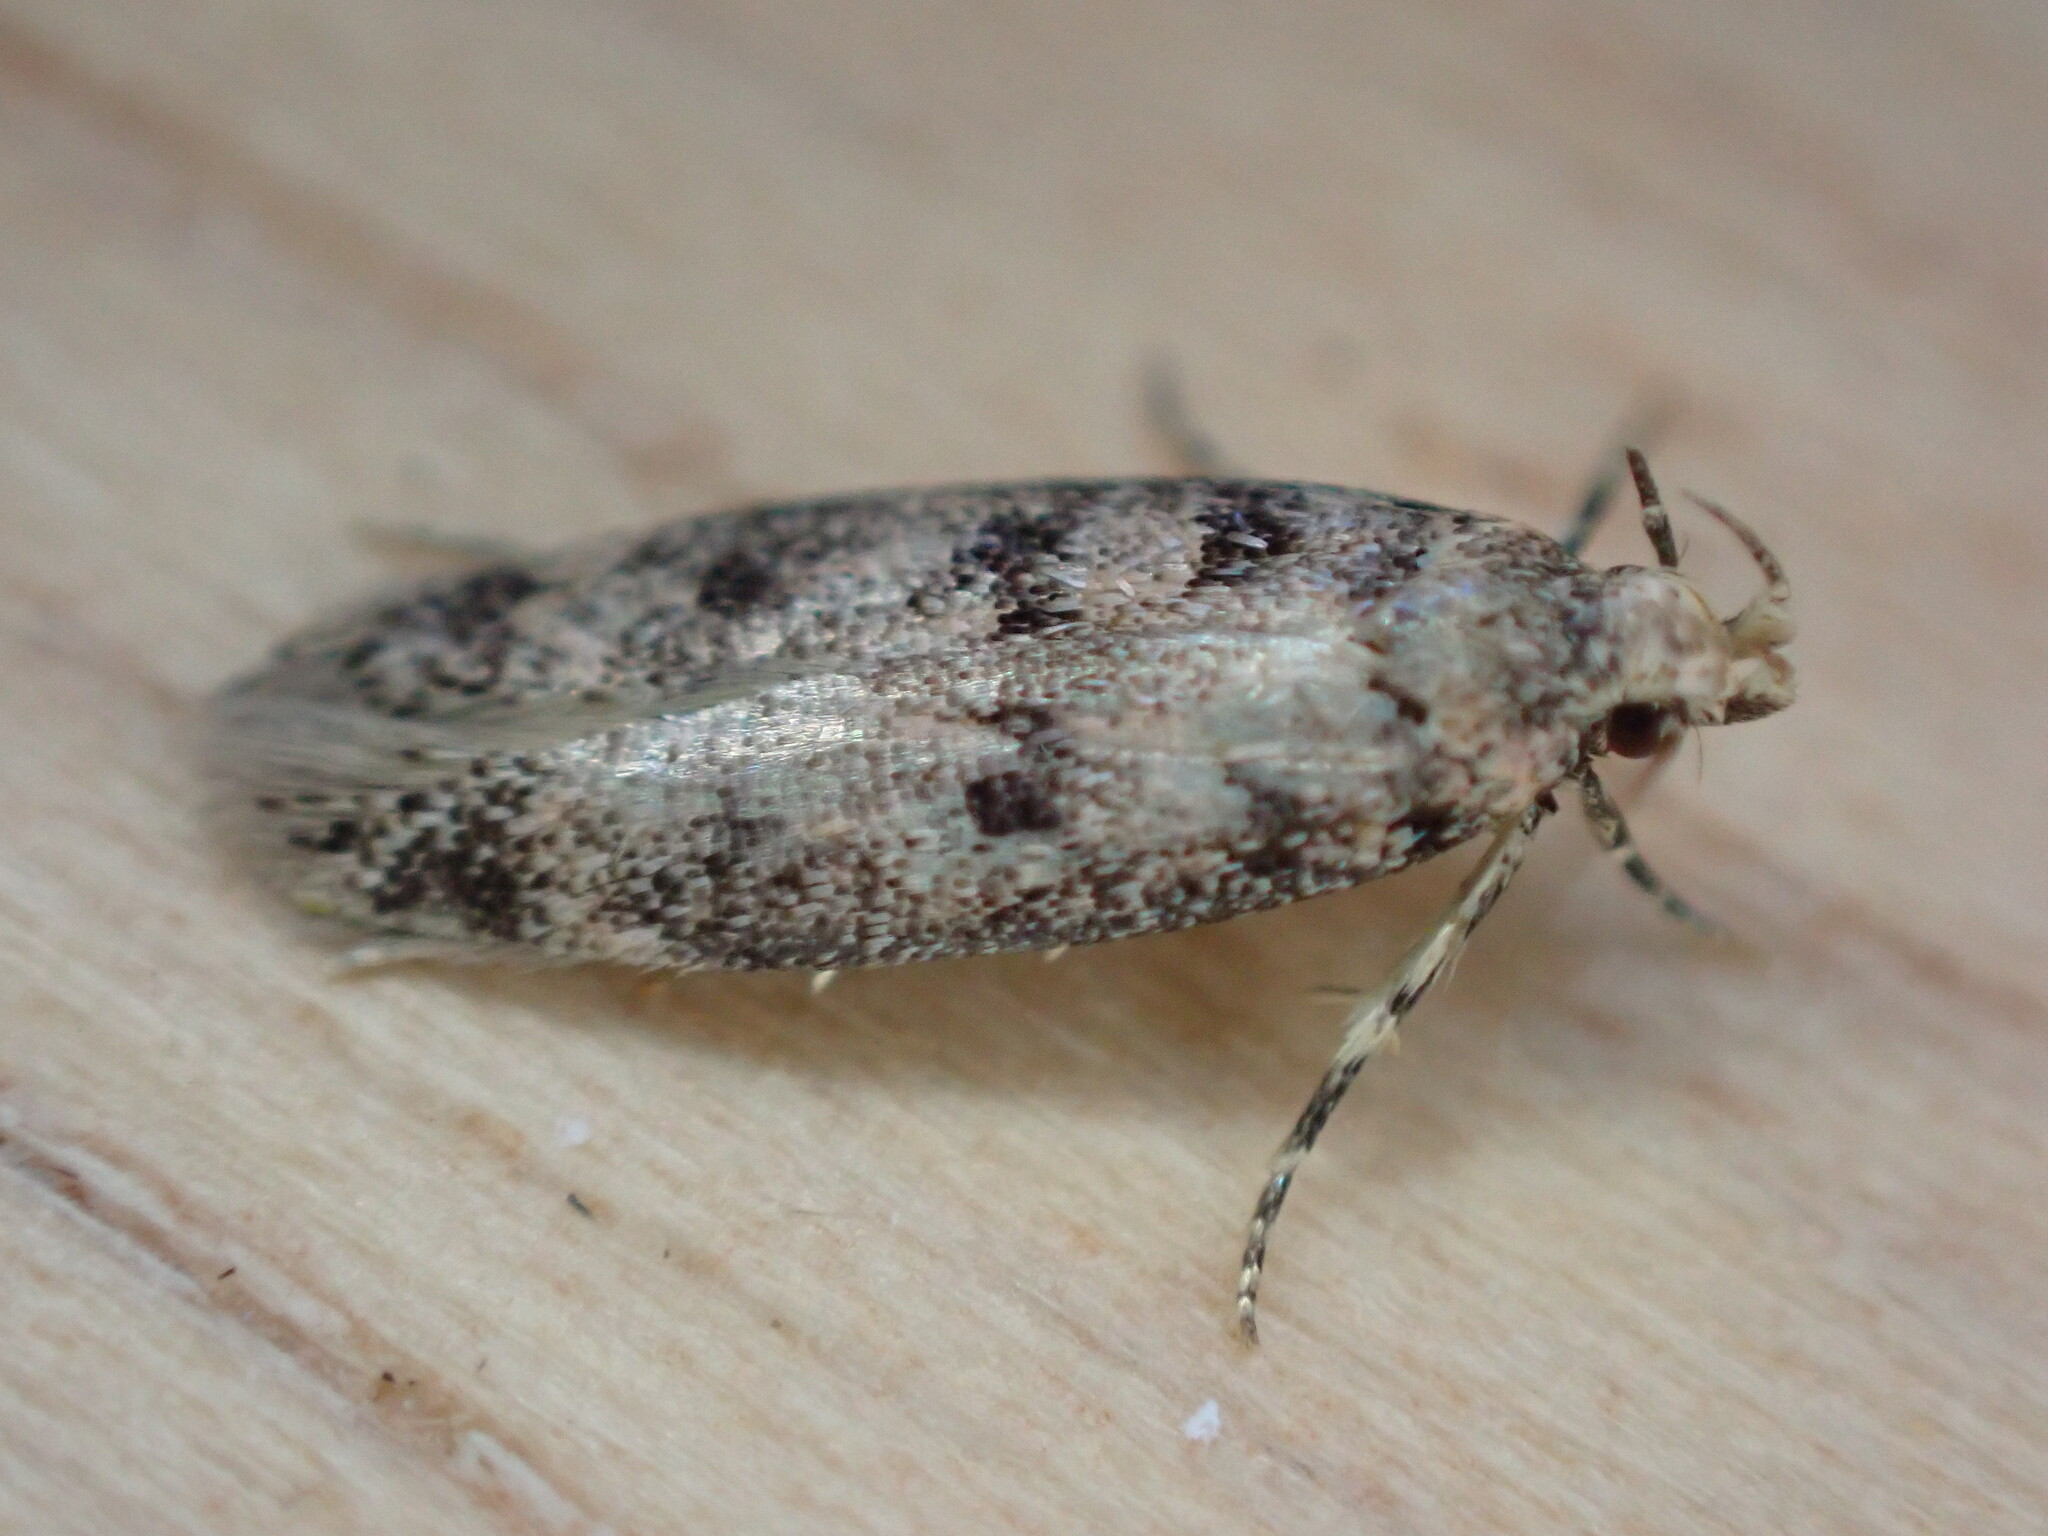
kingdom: Animalia
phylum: Arthropoda
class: Insecta
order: Lepidoptera
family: Gelechiidae
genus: Bryotropha
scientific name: Bryotropha domestica
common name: House groundling
